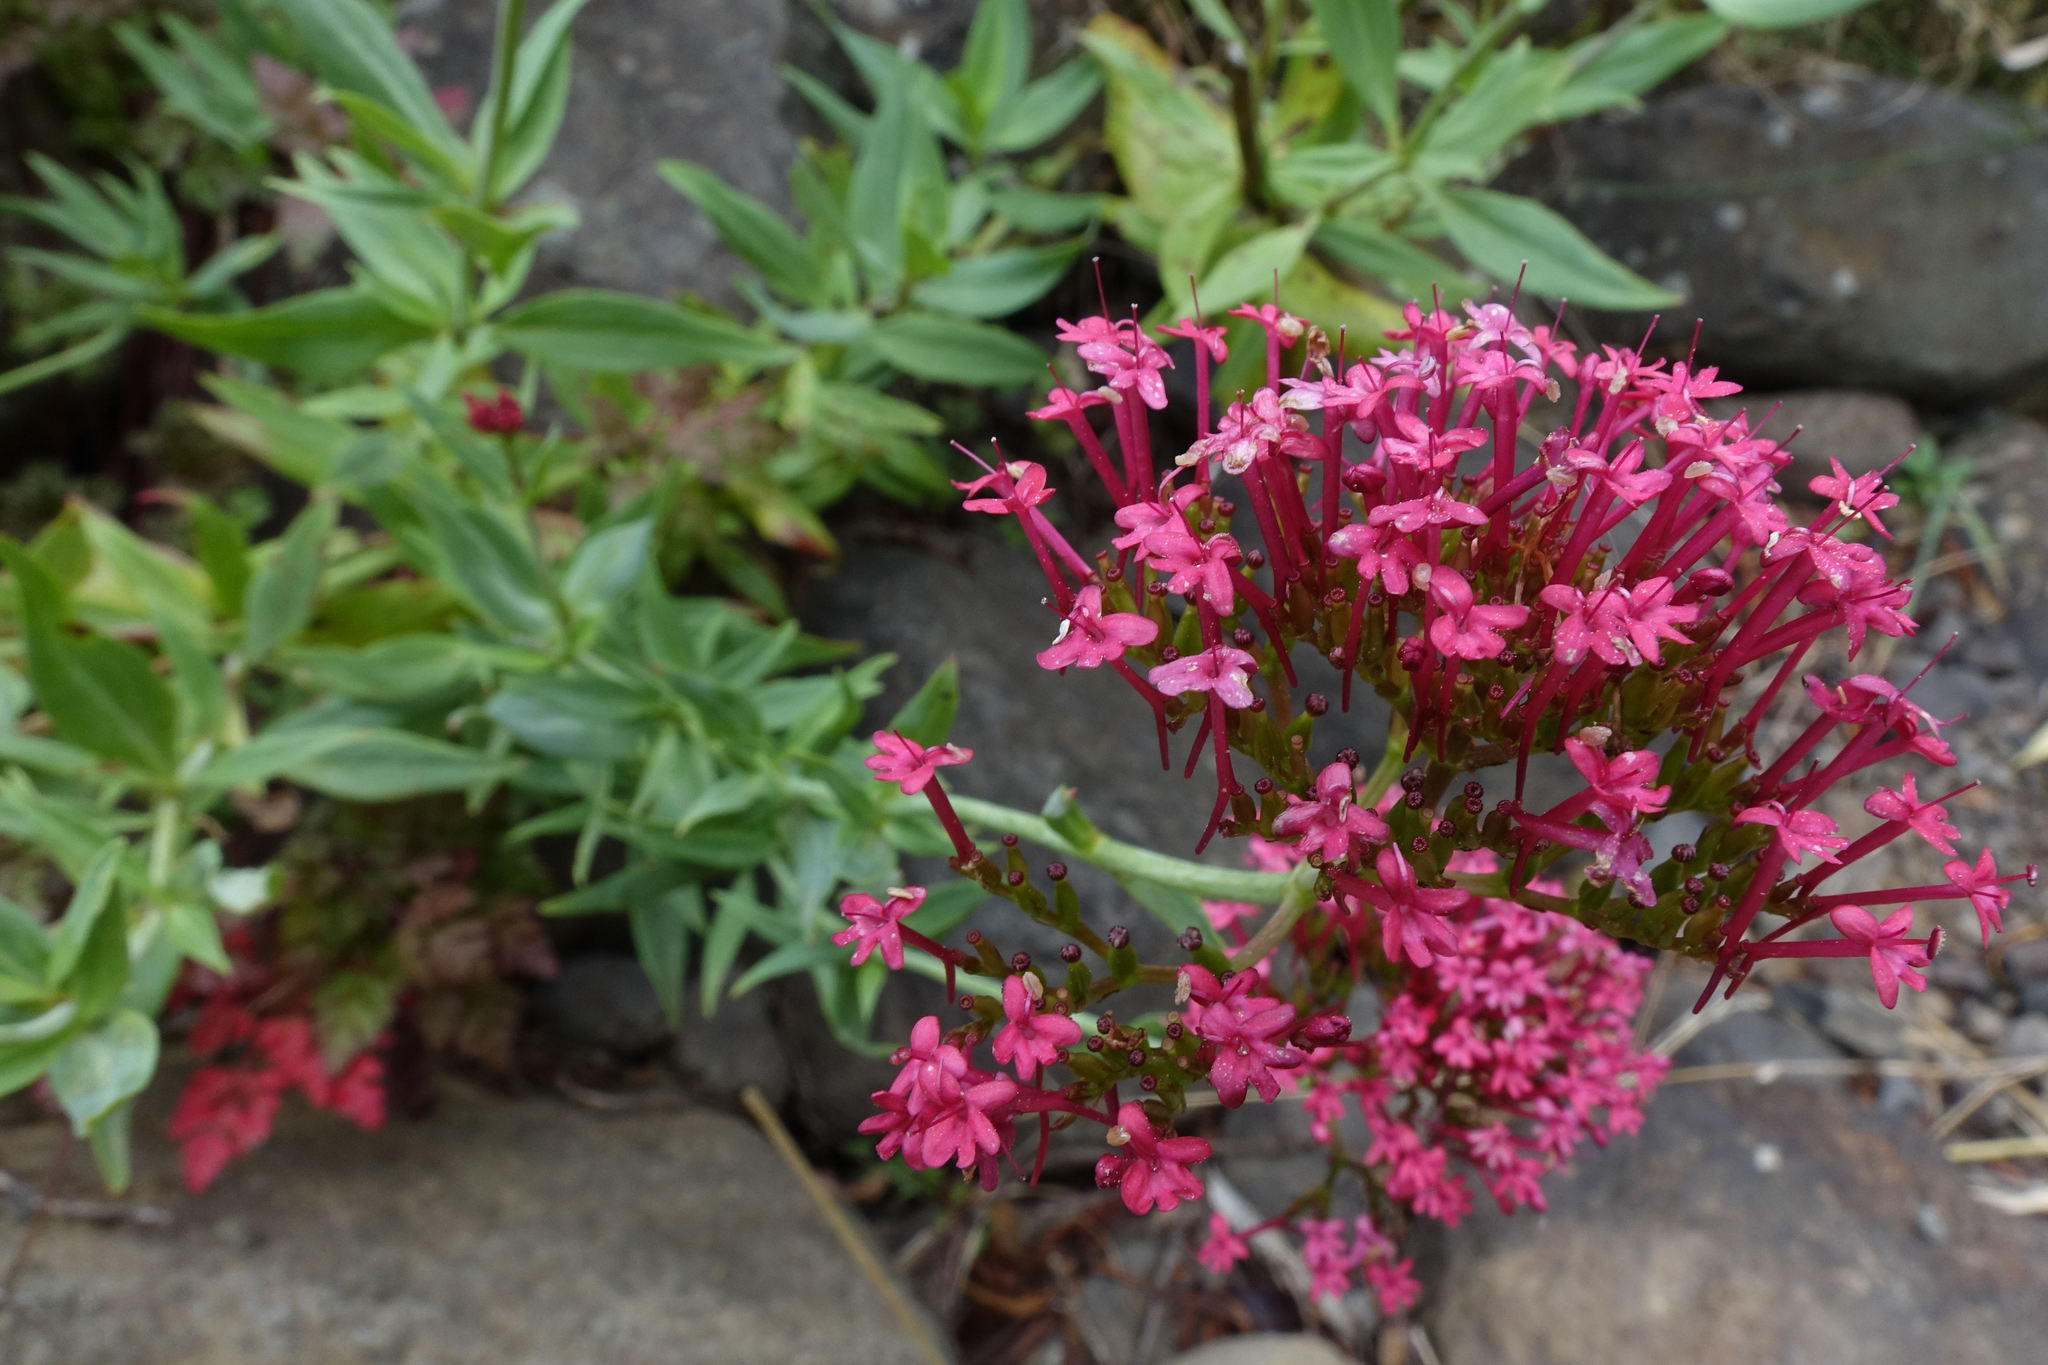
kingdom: Plantae
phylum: Tracheophyta
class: Magnoliopsida
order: Dipsacales
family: Caprifoliaceae
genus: Centranthus
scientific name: Centranthus ruber
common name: Red valerian
